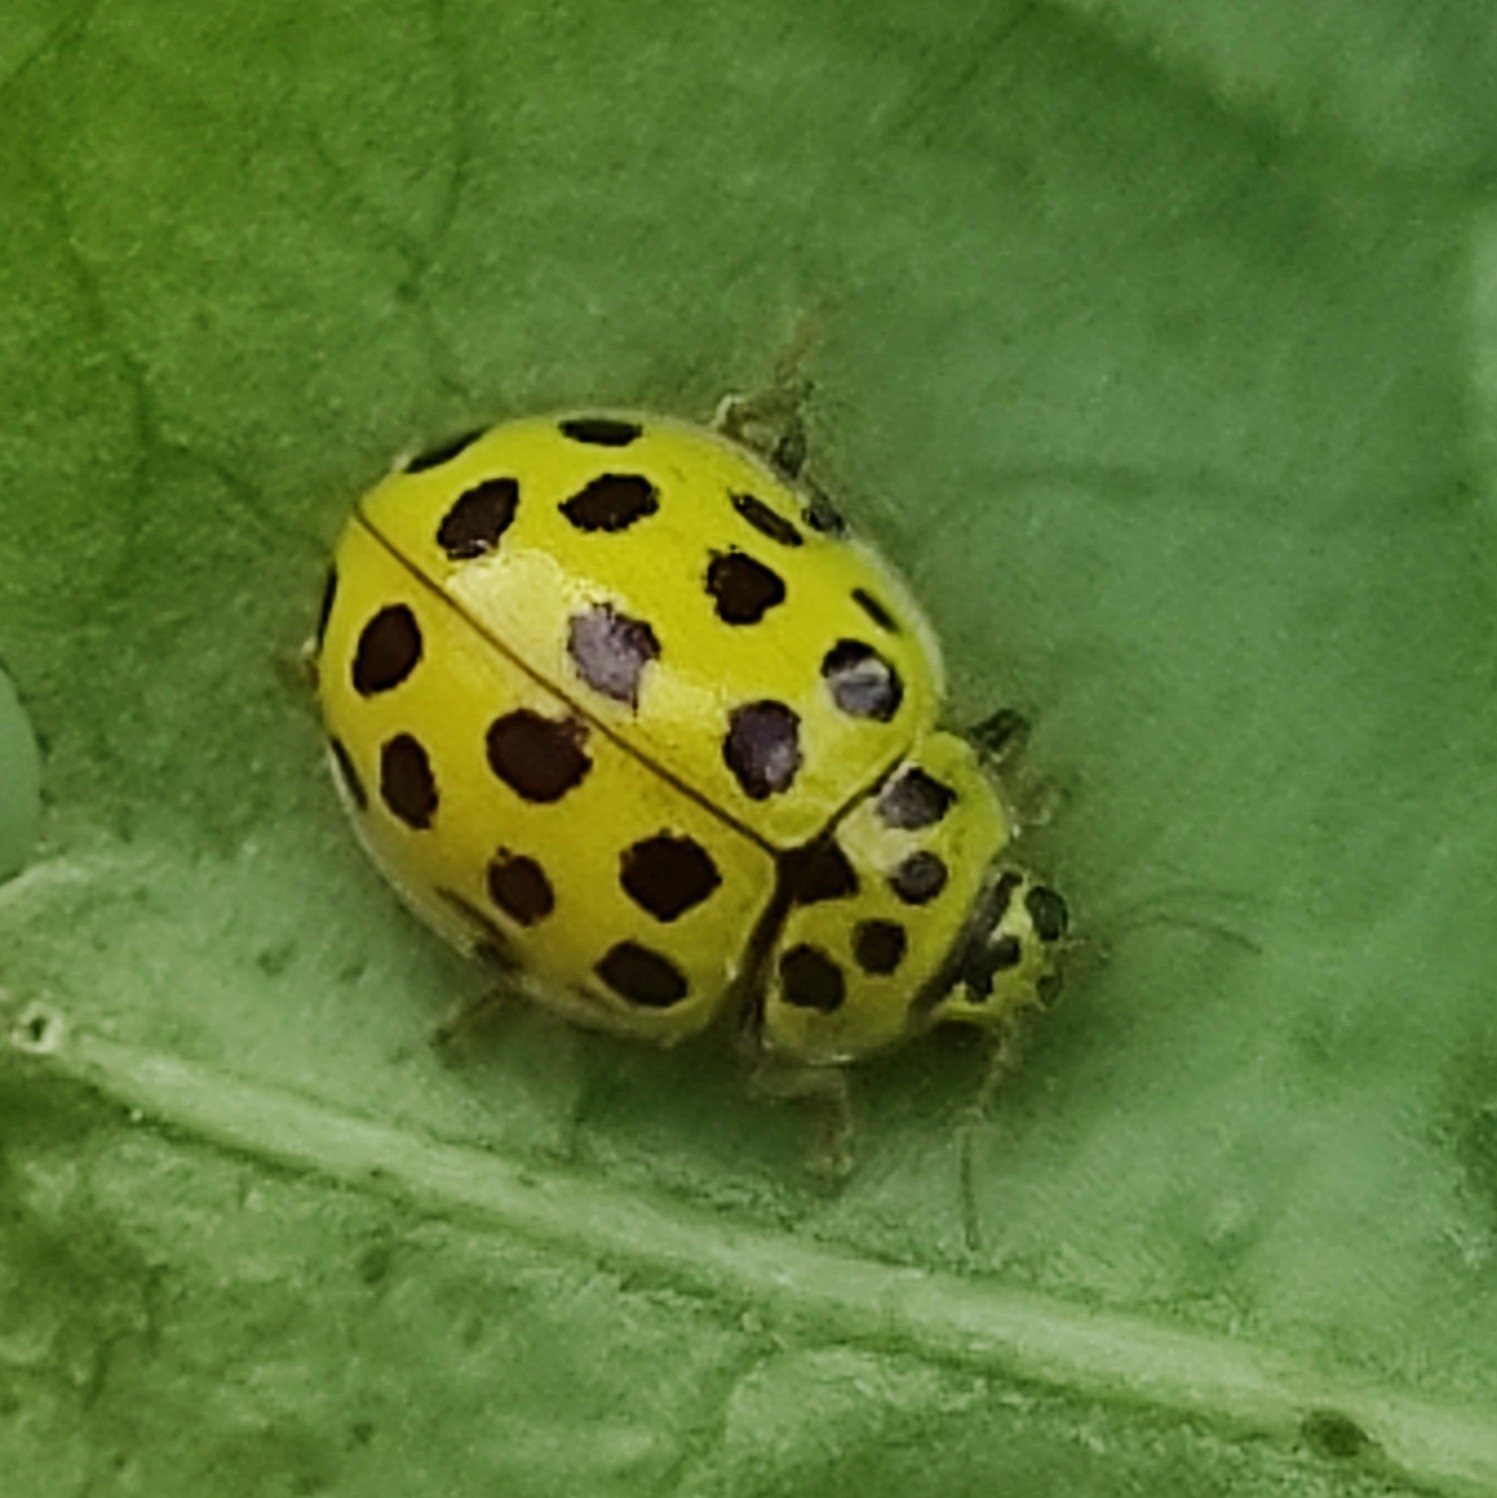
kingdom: Animalia
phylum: Arthropoda
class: Insecta
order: Coleoptera
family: Coccinellidae
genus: Psyllobora
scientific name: Psyllobora vigintiduopunctata
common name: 22-spot ladybird
